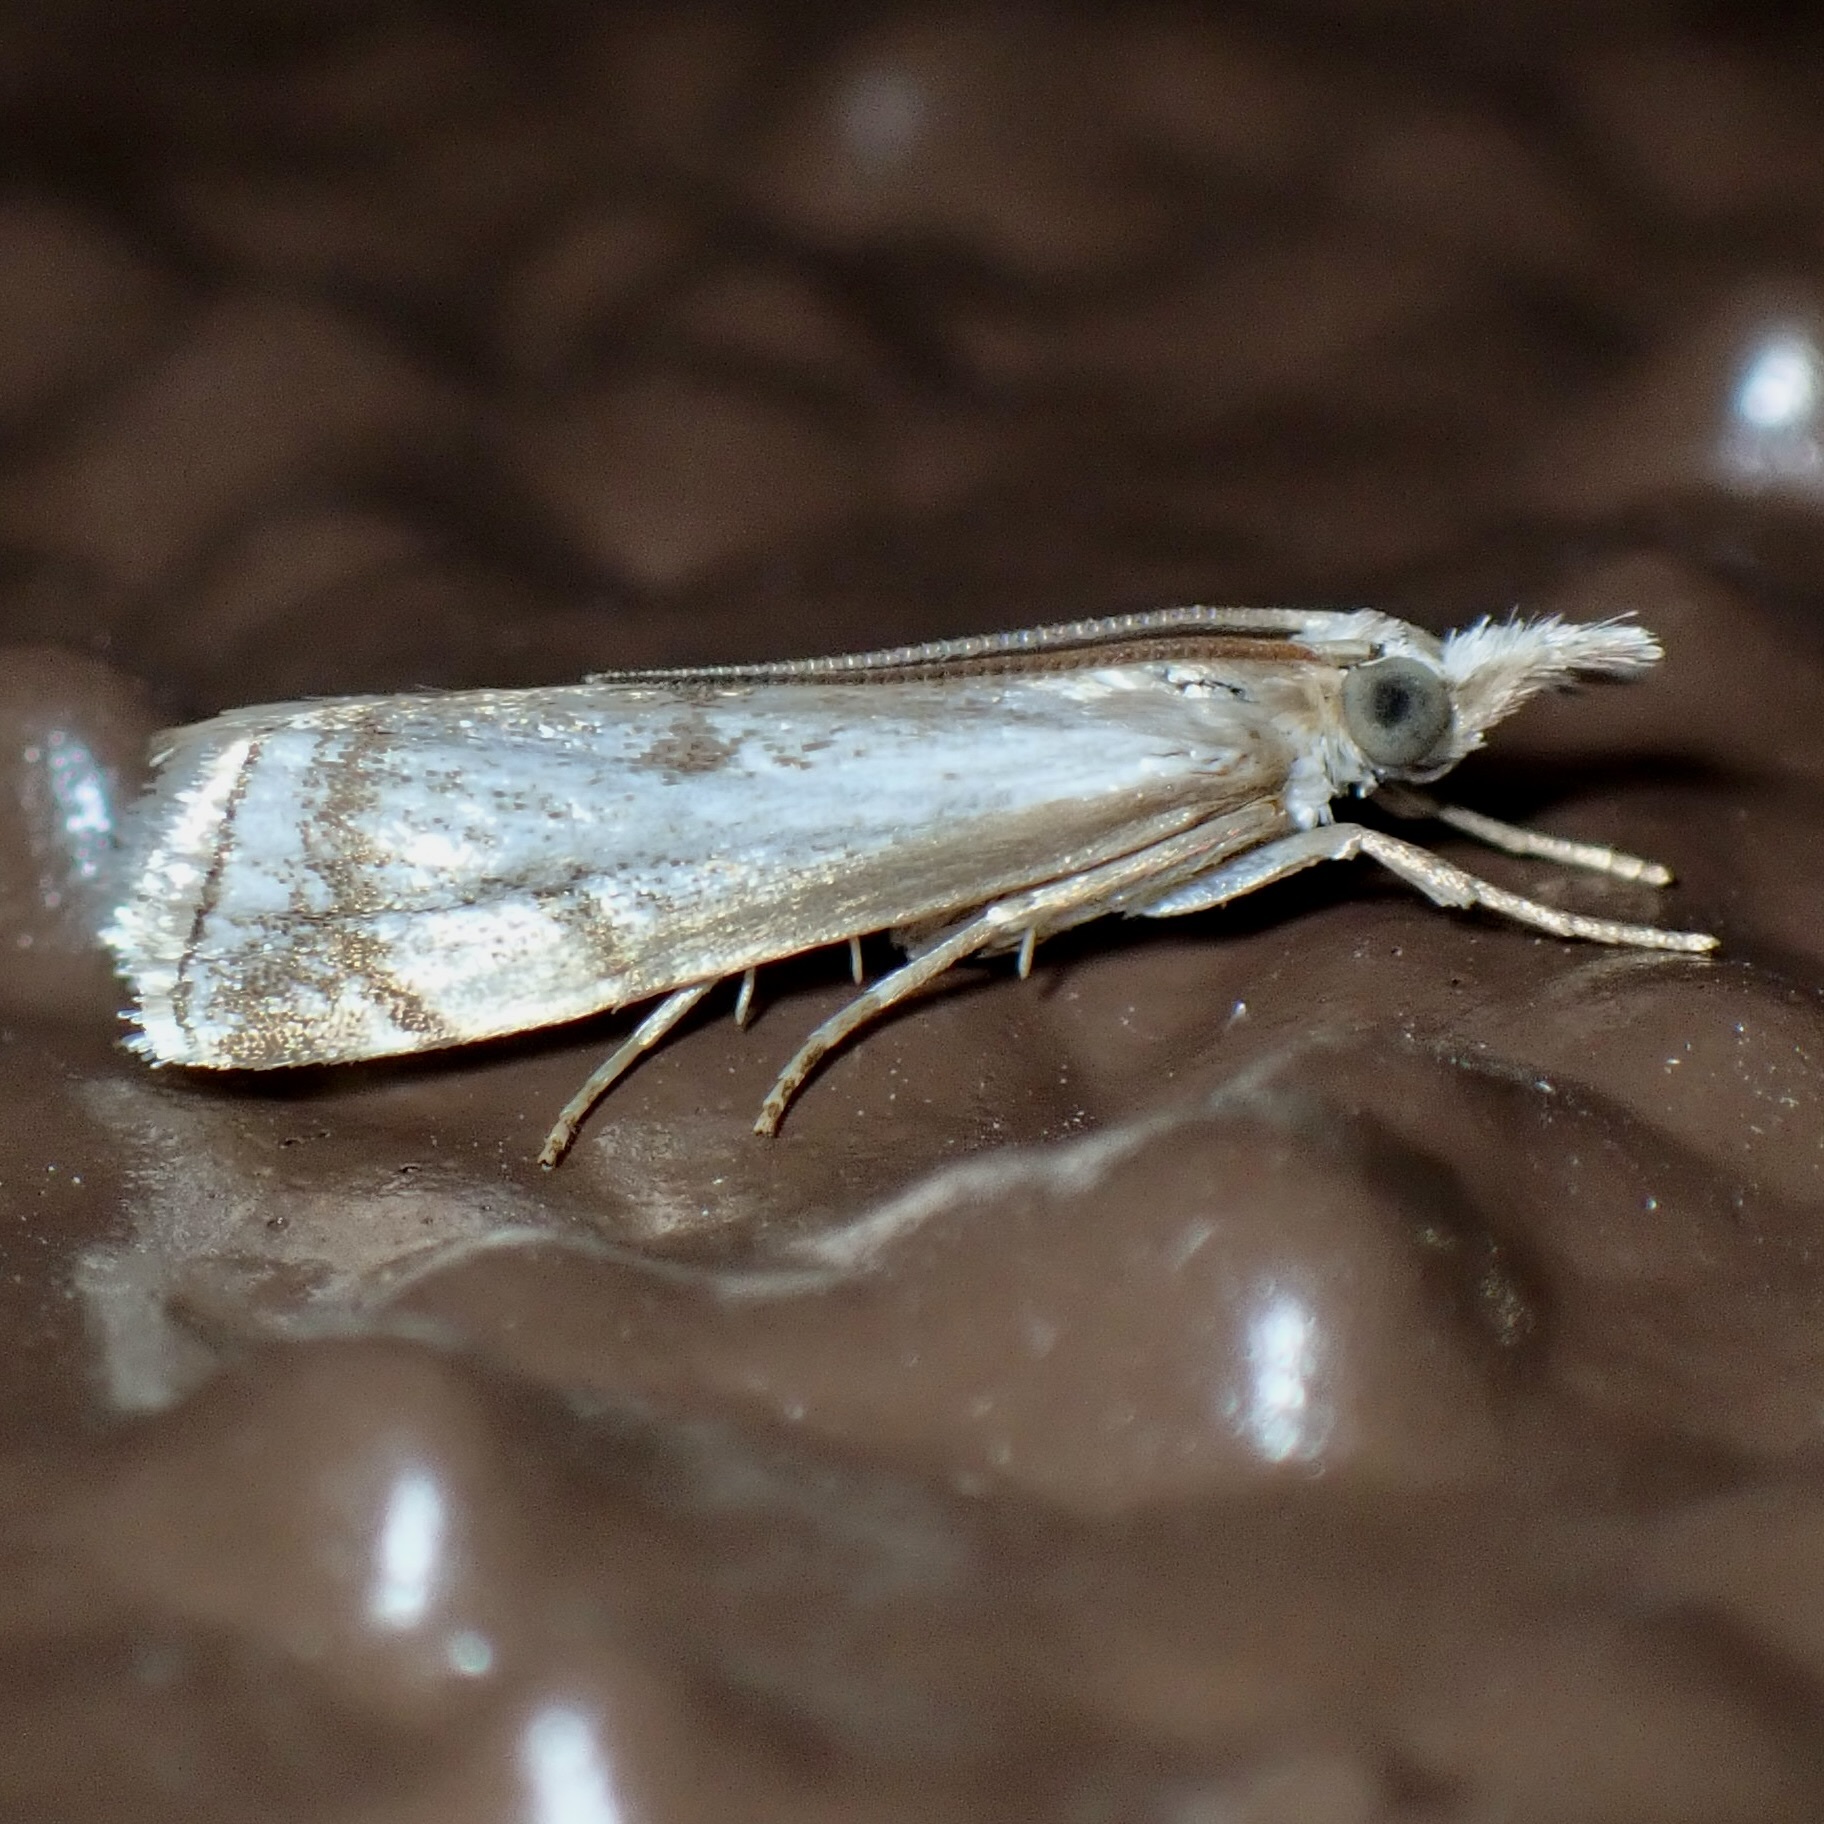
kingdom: Animalia
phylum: Arthropoda
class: Insecta
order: Lepidoptera
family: Crambidae
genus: Microcrambus
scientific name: Microcrambus polingi
